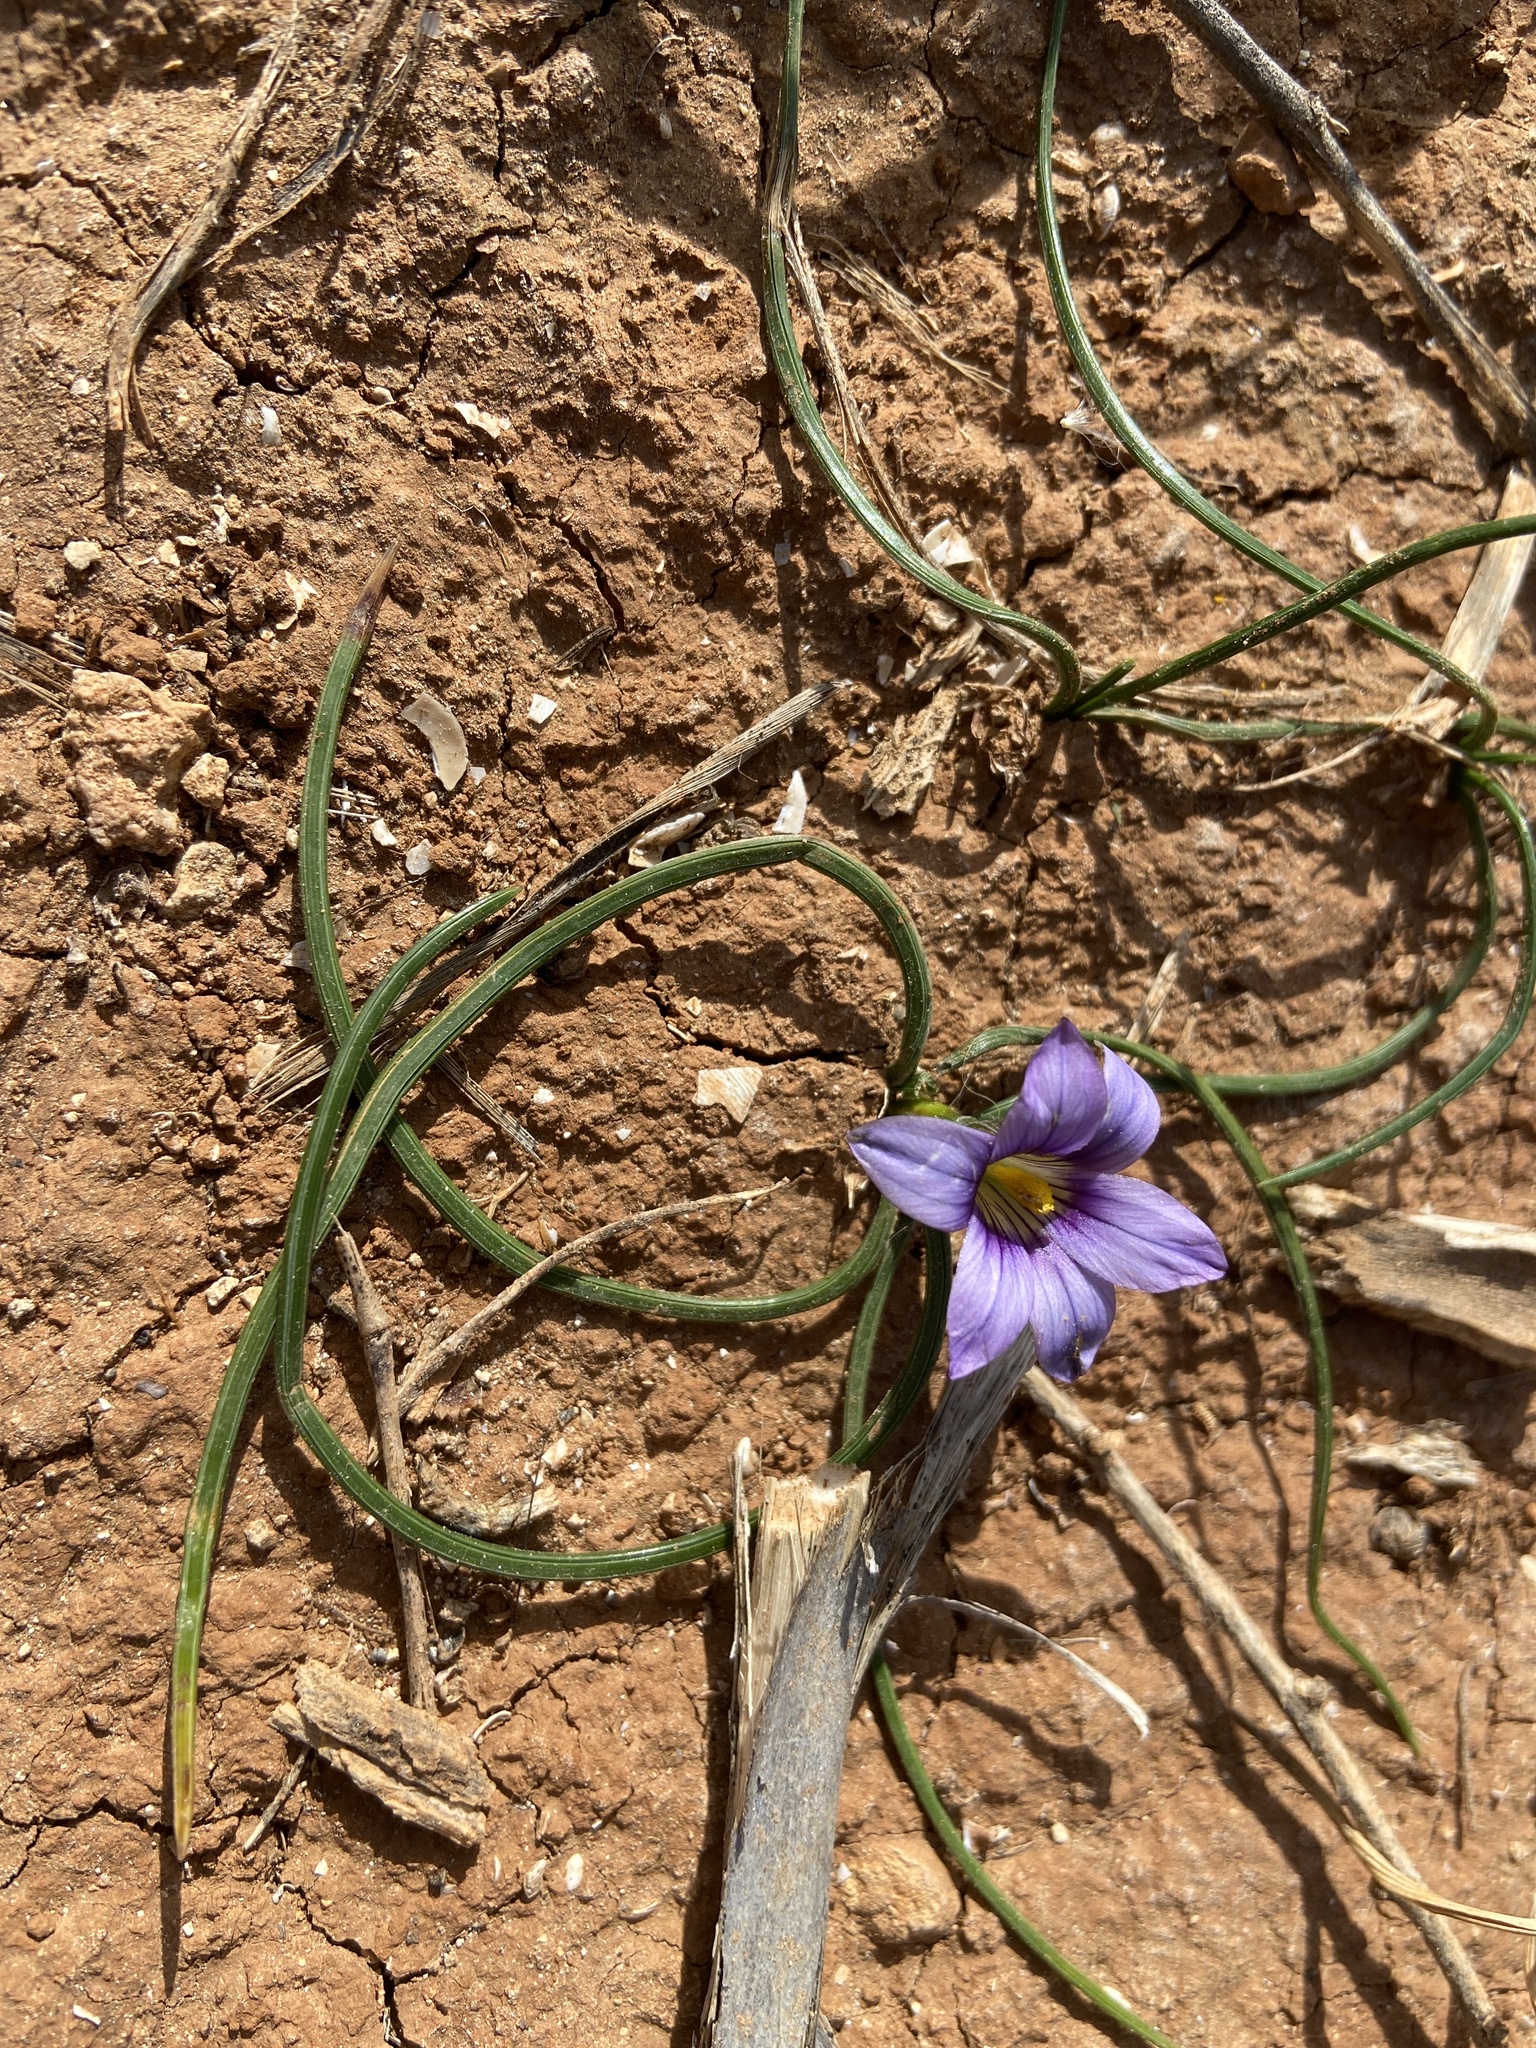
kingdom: Plantae
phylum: Tracheophyta
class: Liliopsida
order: Asparagales
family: Iridaceae
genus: Romulea
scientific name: Romulea variicolor
